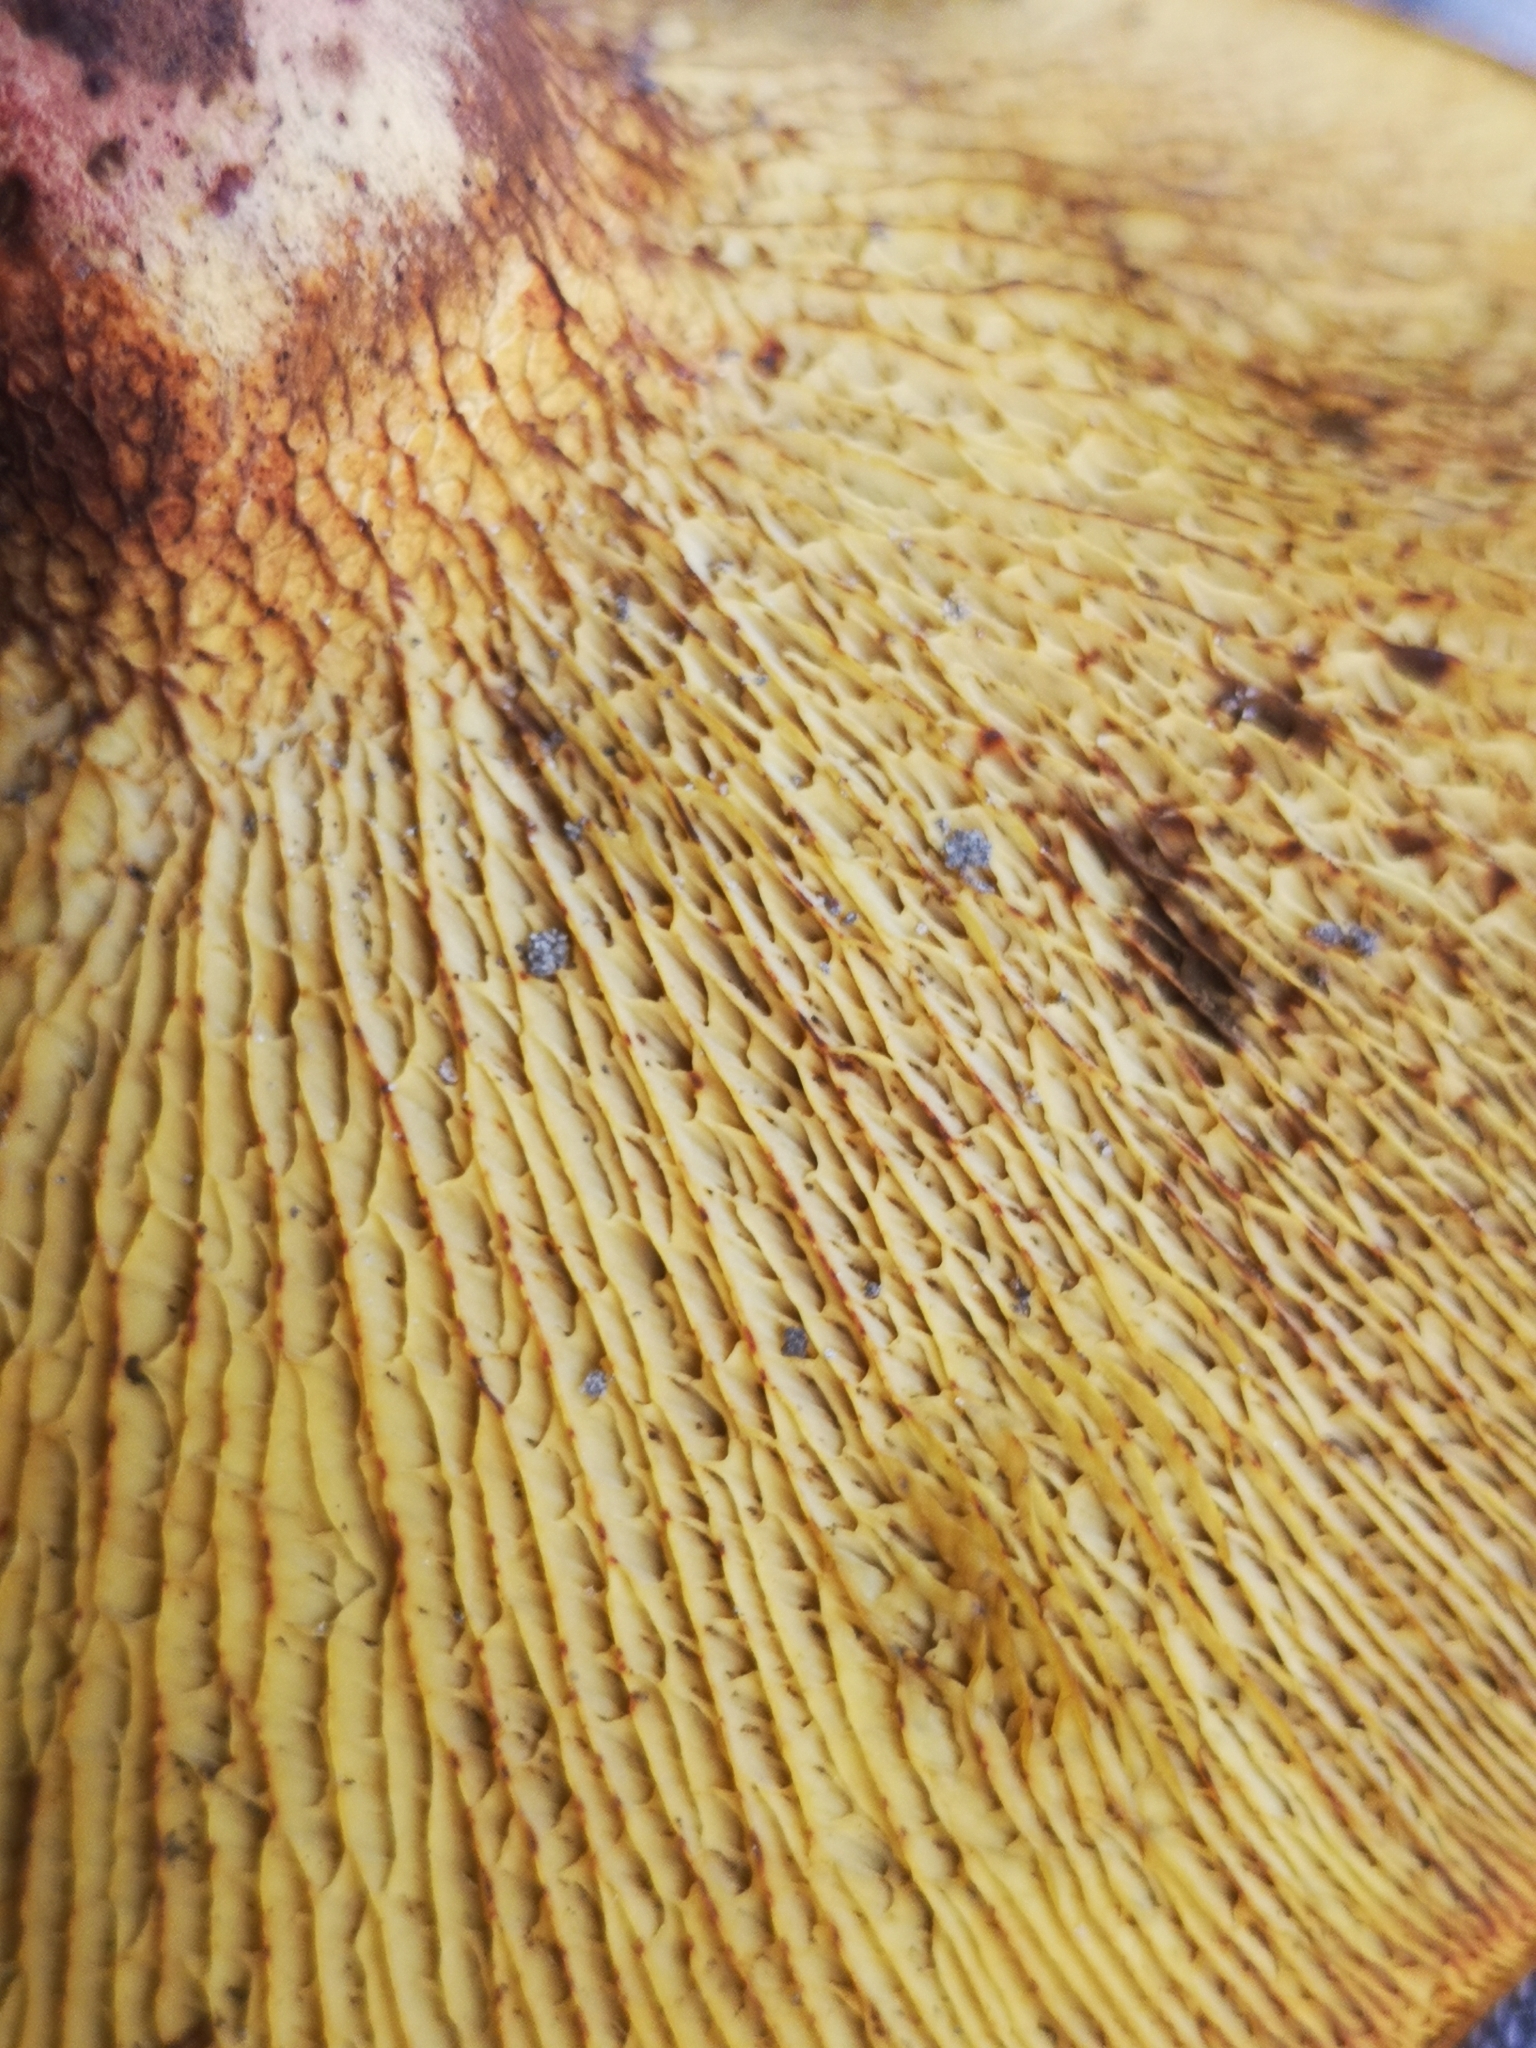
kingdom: Fungi
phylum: Basidiomycota
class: Agaricomycetes
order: Boletales
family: Boletinellaceae
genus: Boletinellus
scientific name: Boletinellus merulioides
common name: Ash tree bolete
